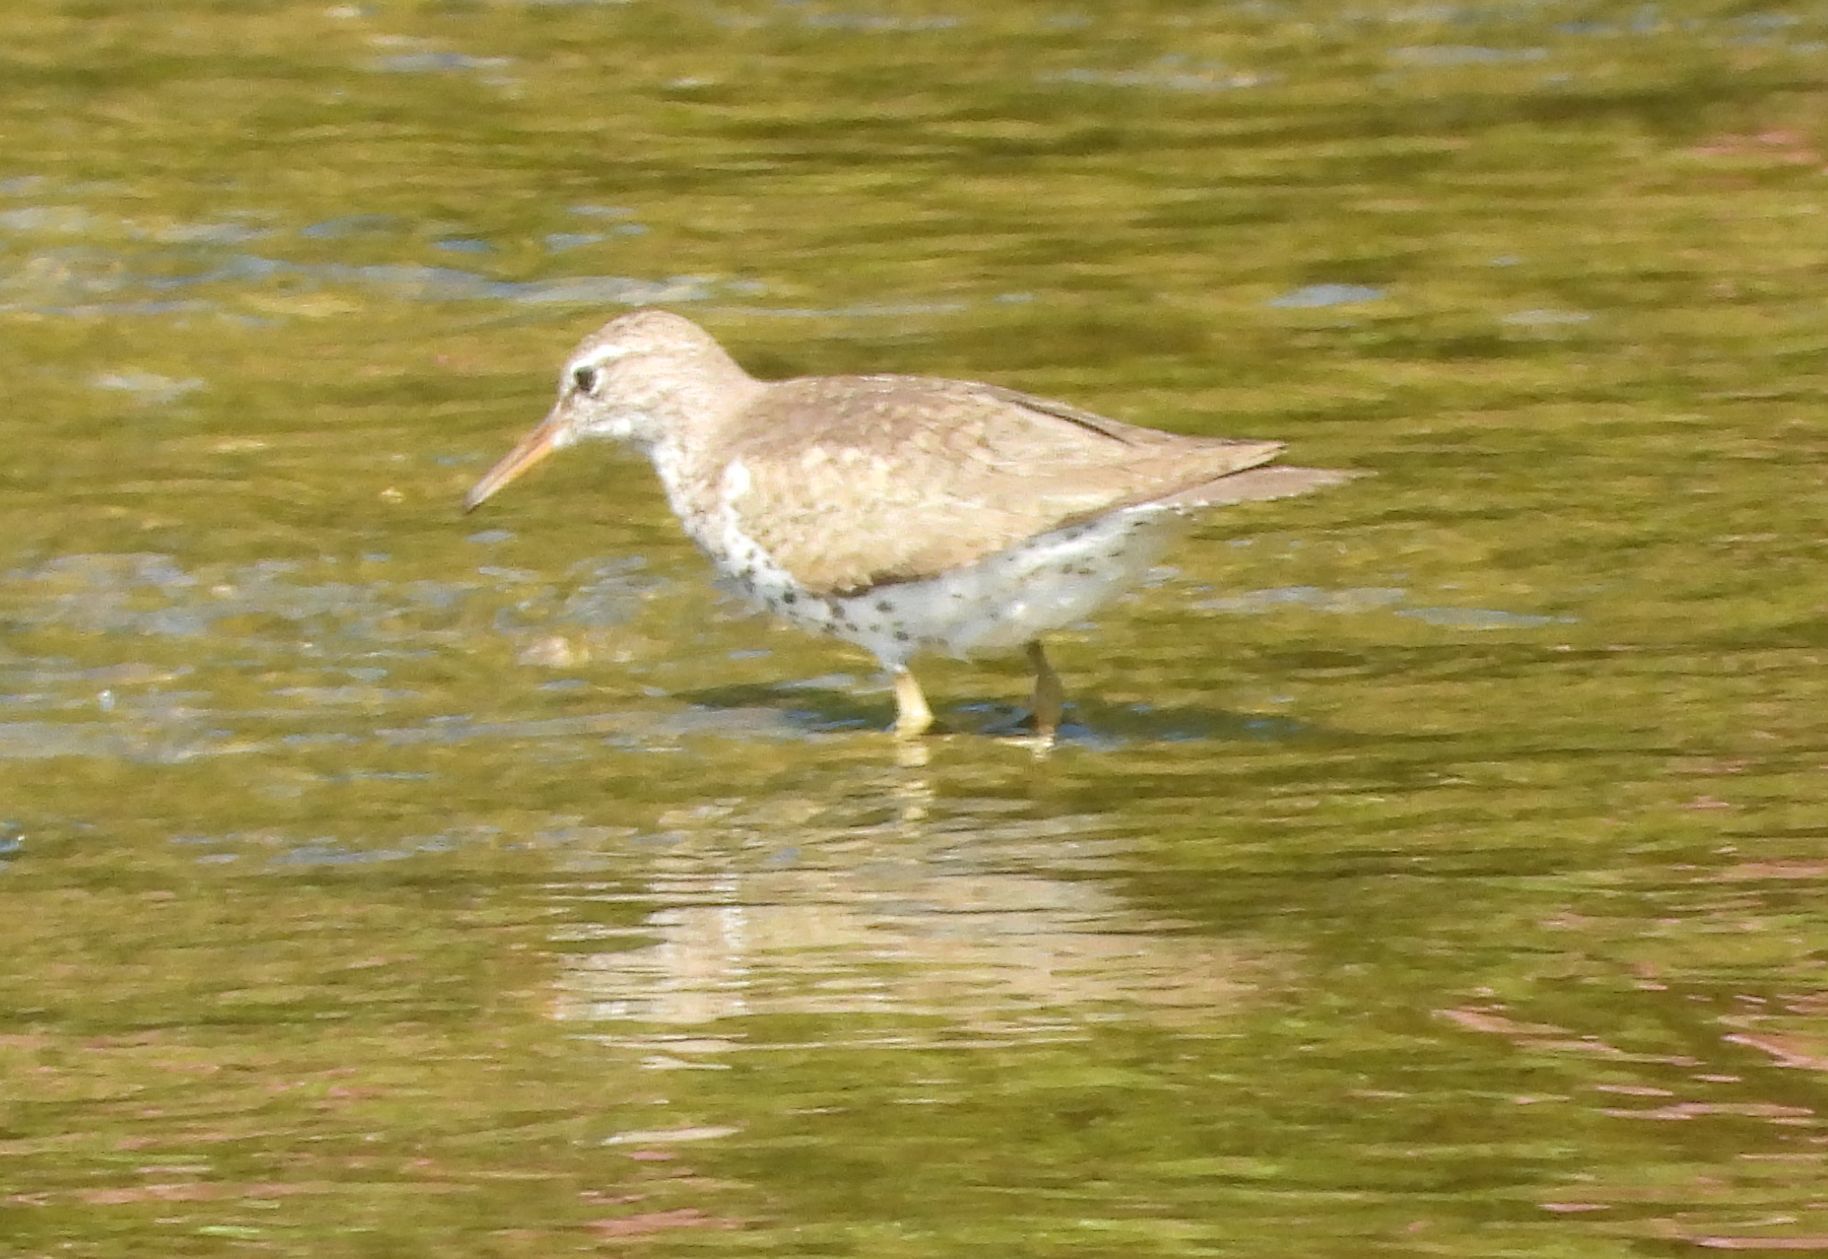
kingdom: Animalia
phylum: Chordata
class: Aves
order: Charadriiformes
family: Scolopacidae
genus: Actitis
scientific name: Actitis macularius
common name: Spotted sandpiper
